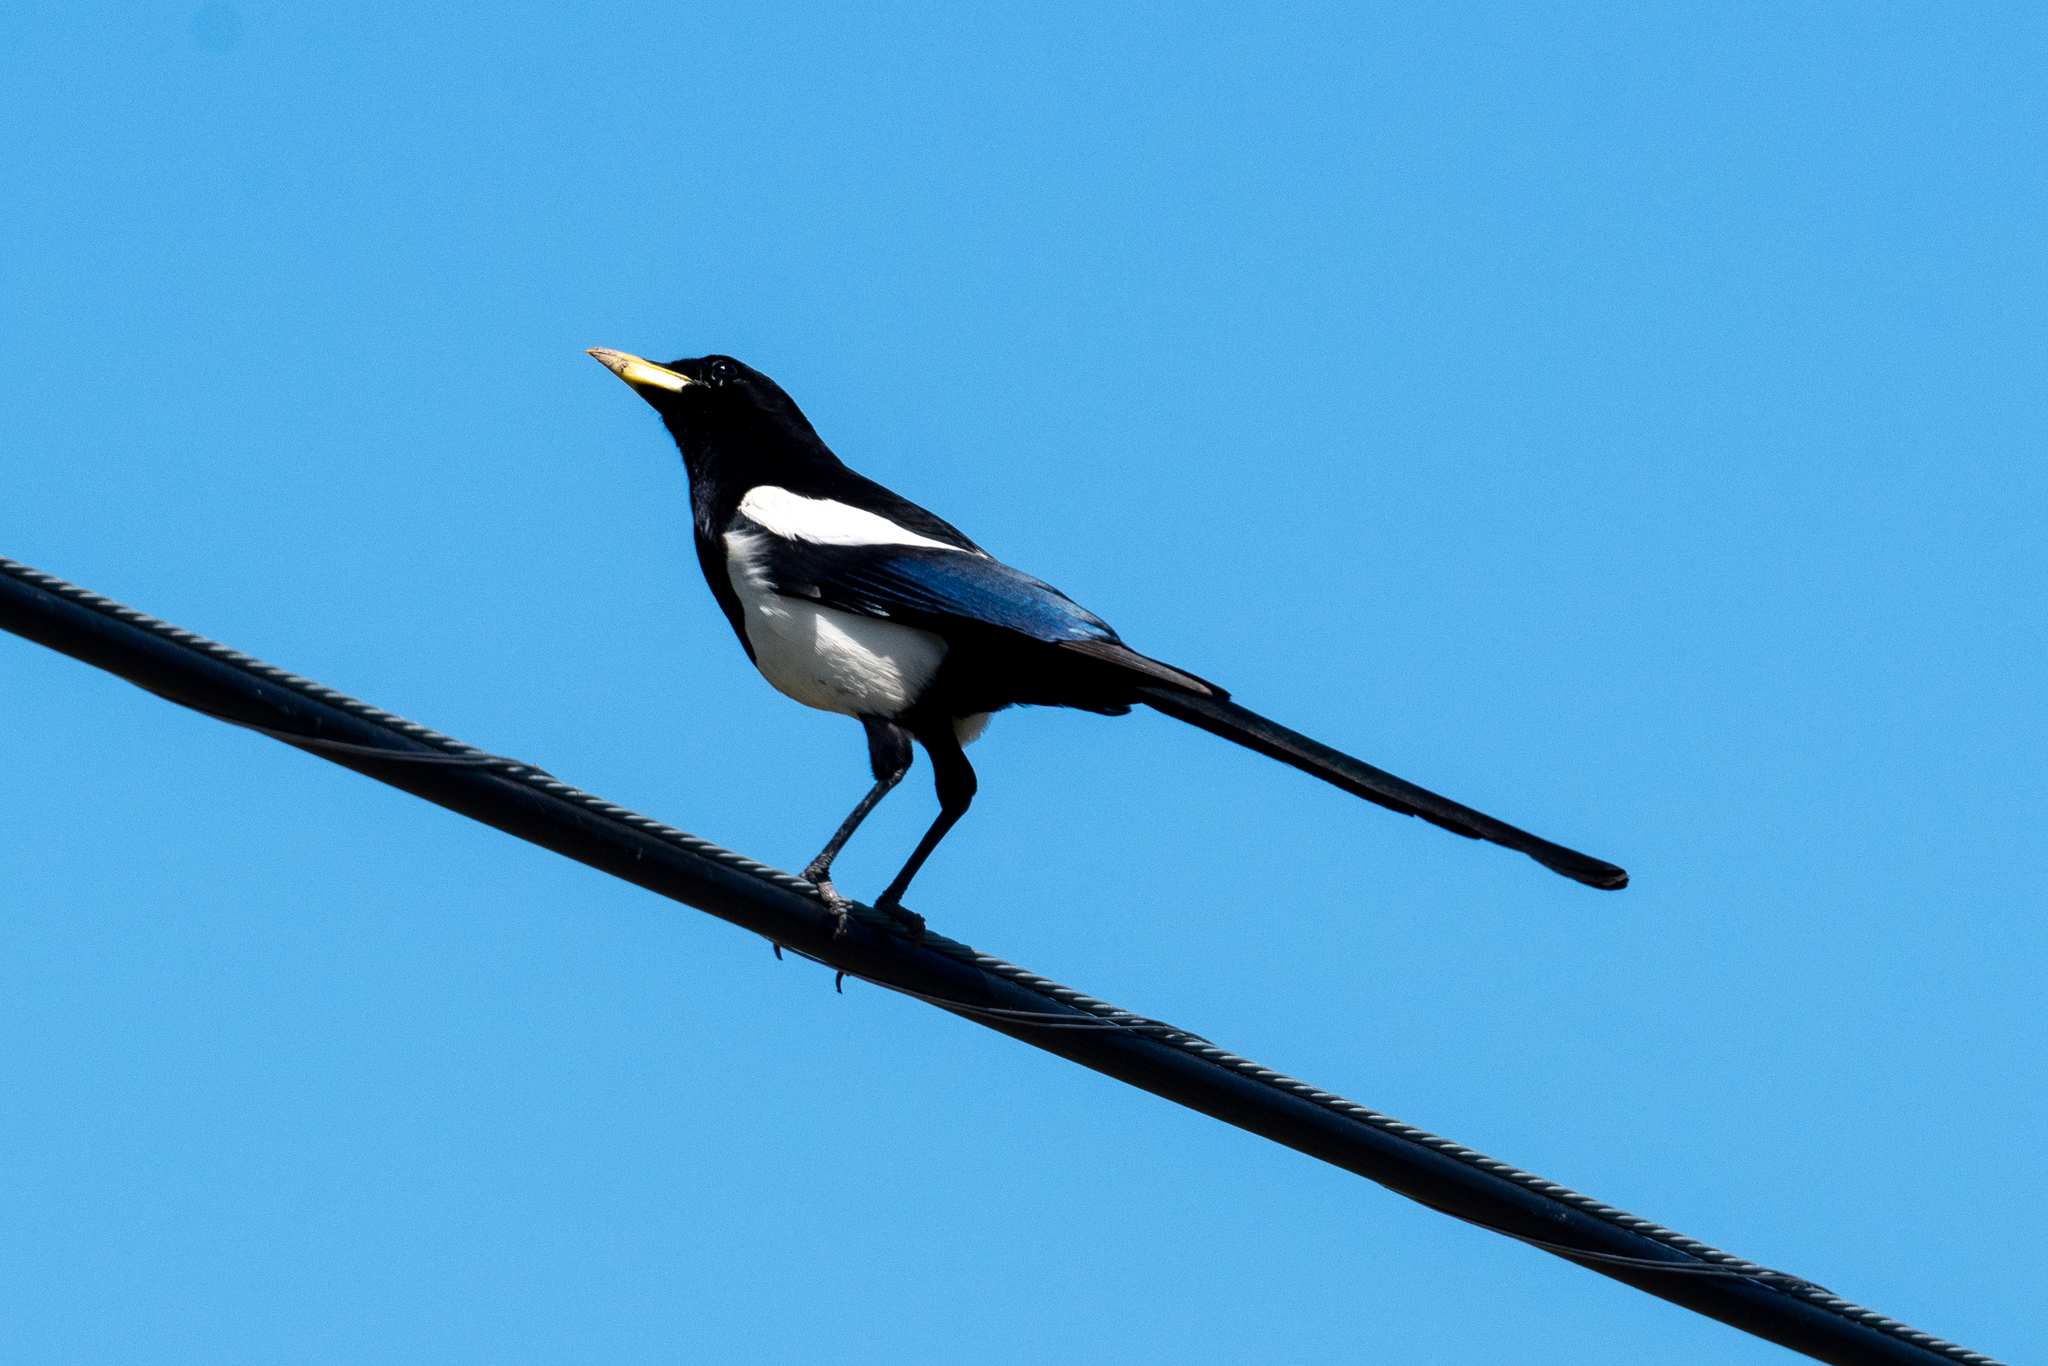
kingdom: Animalia
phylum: Chordata
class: Aves
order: Passeriformes
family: Corvidae
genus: Pica
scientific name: Pica nuttalli
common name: Yellow-billed magpie
